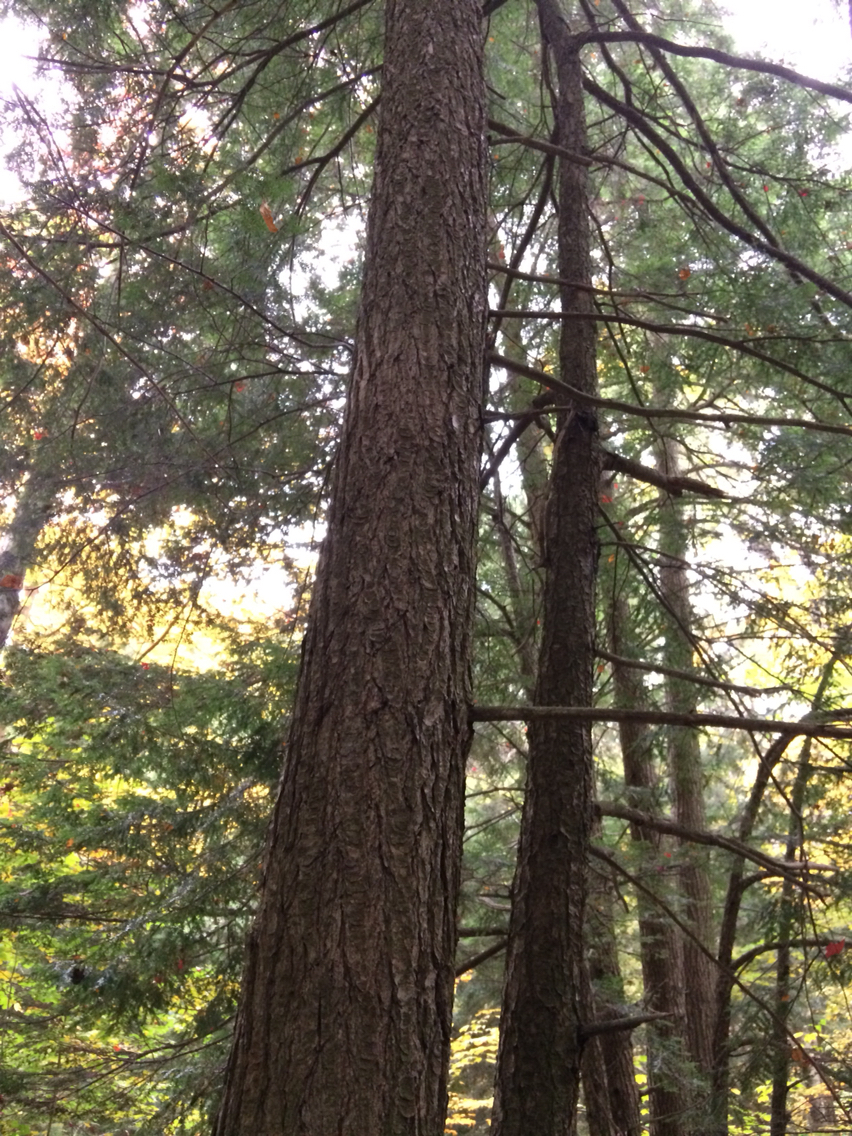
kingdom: Plantae
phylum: Tracheophyta
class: Pinopsida
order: Pinales
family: Pinaceae
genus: Tsuga
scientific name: Tsuga canadensis
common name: Eastern hemlock
